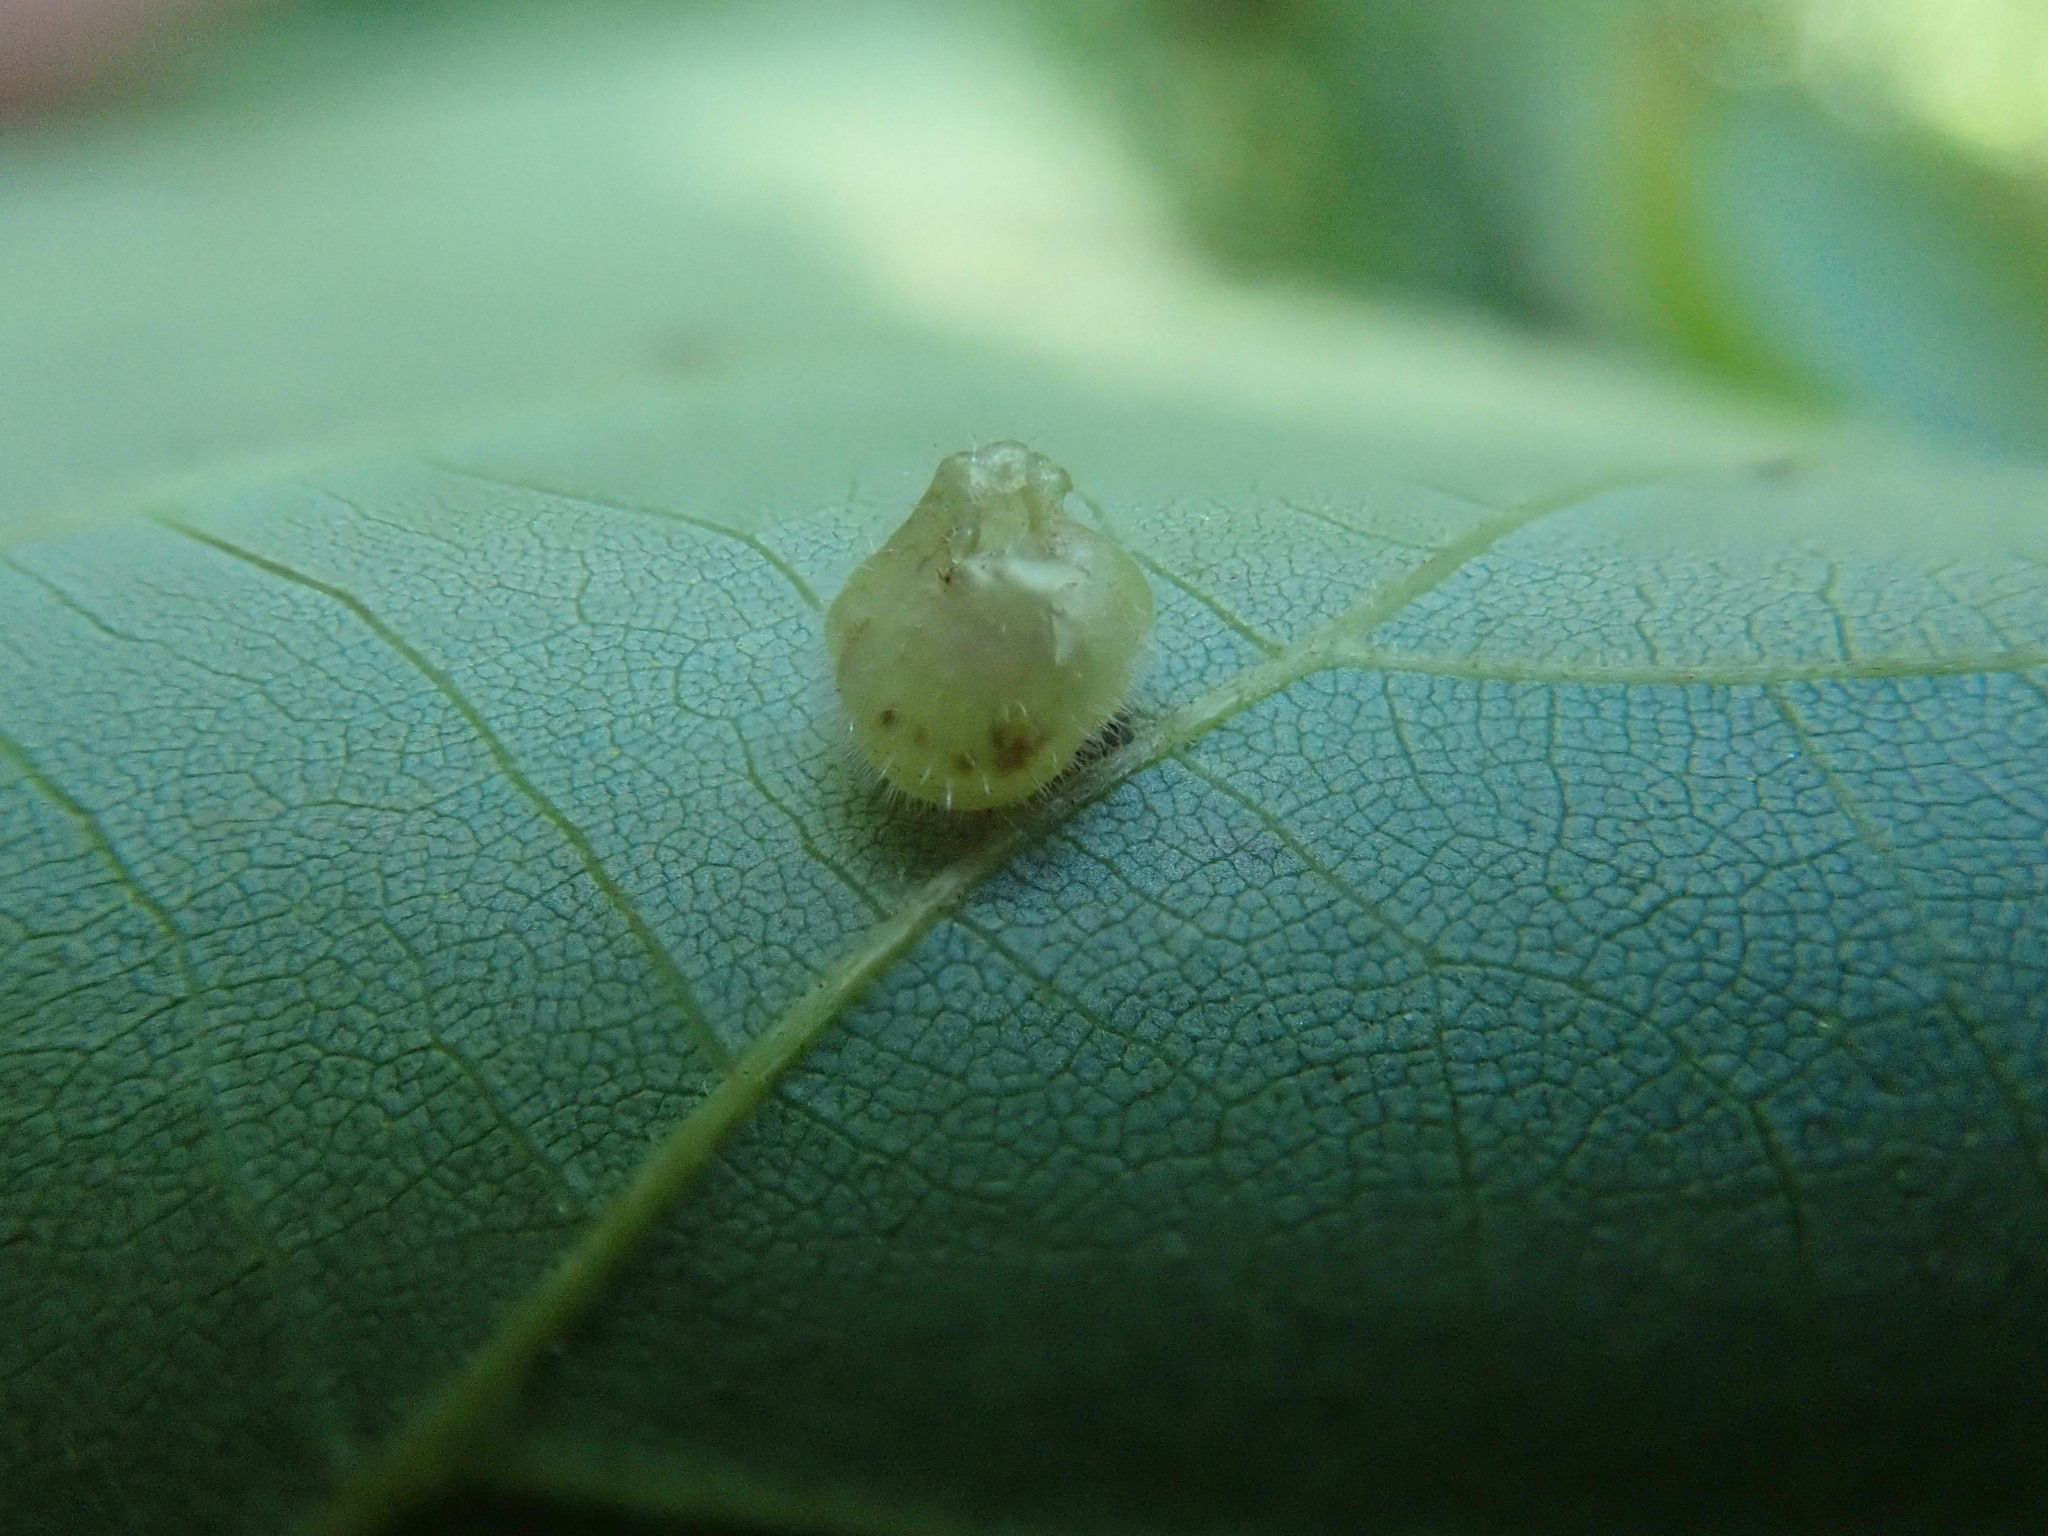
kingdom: Animalia
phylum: Arthropoda
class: Insecta
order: Diptera
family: Cecidomyiidae
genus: Caryomyia
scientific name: Caryomyia inanis
